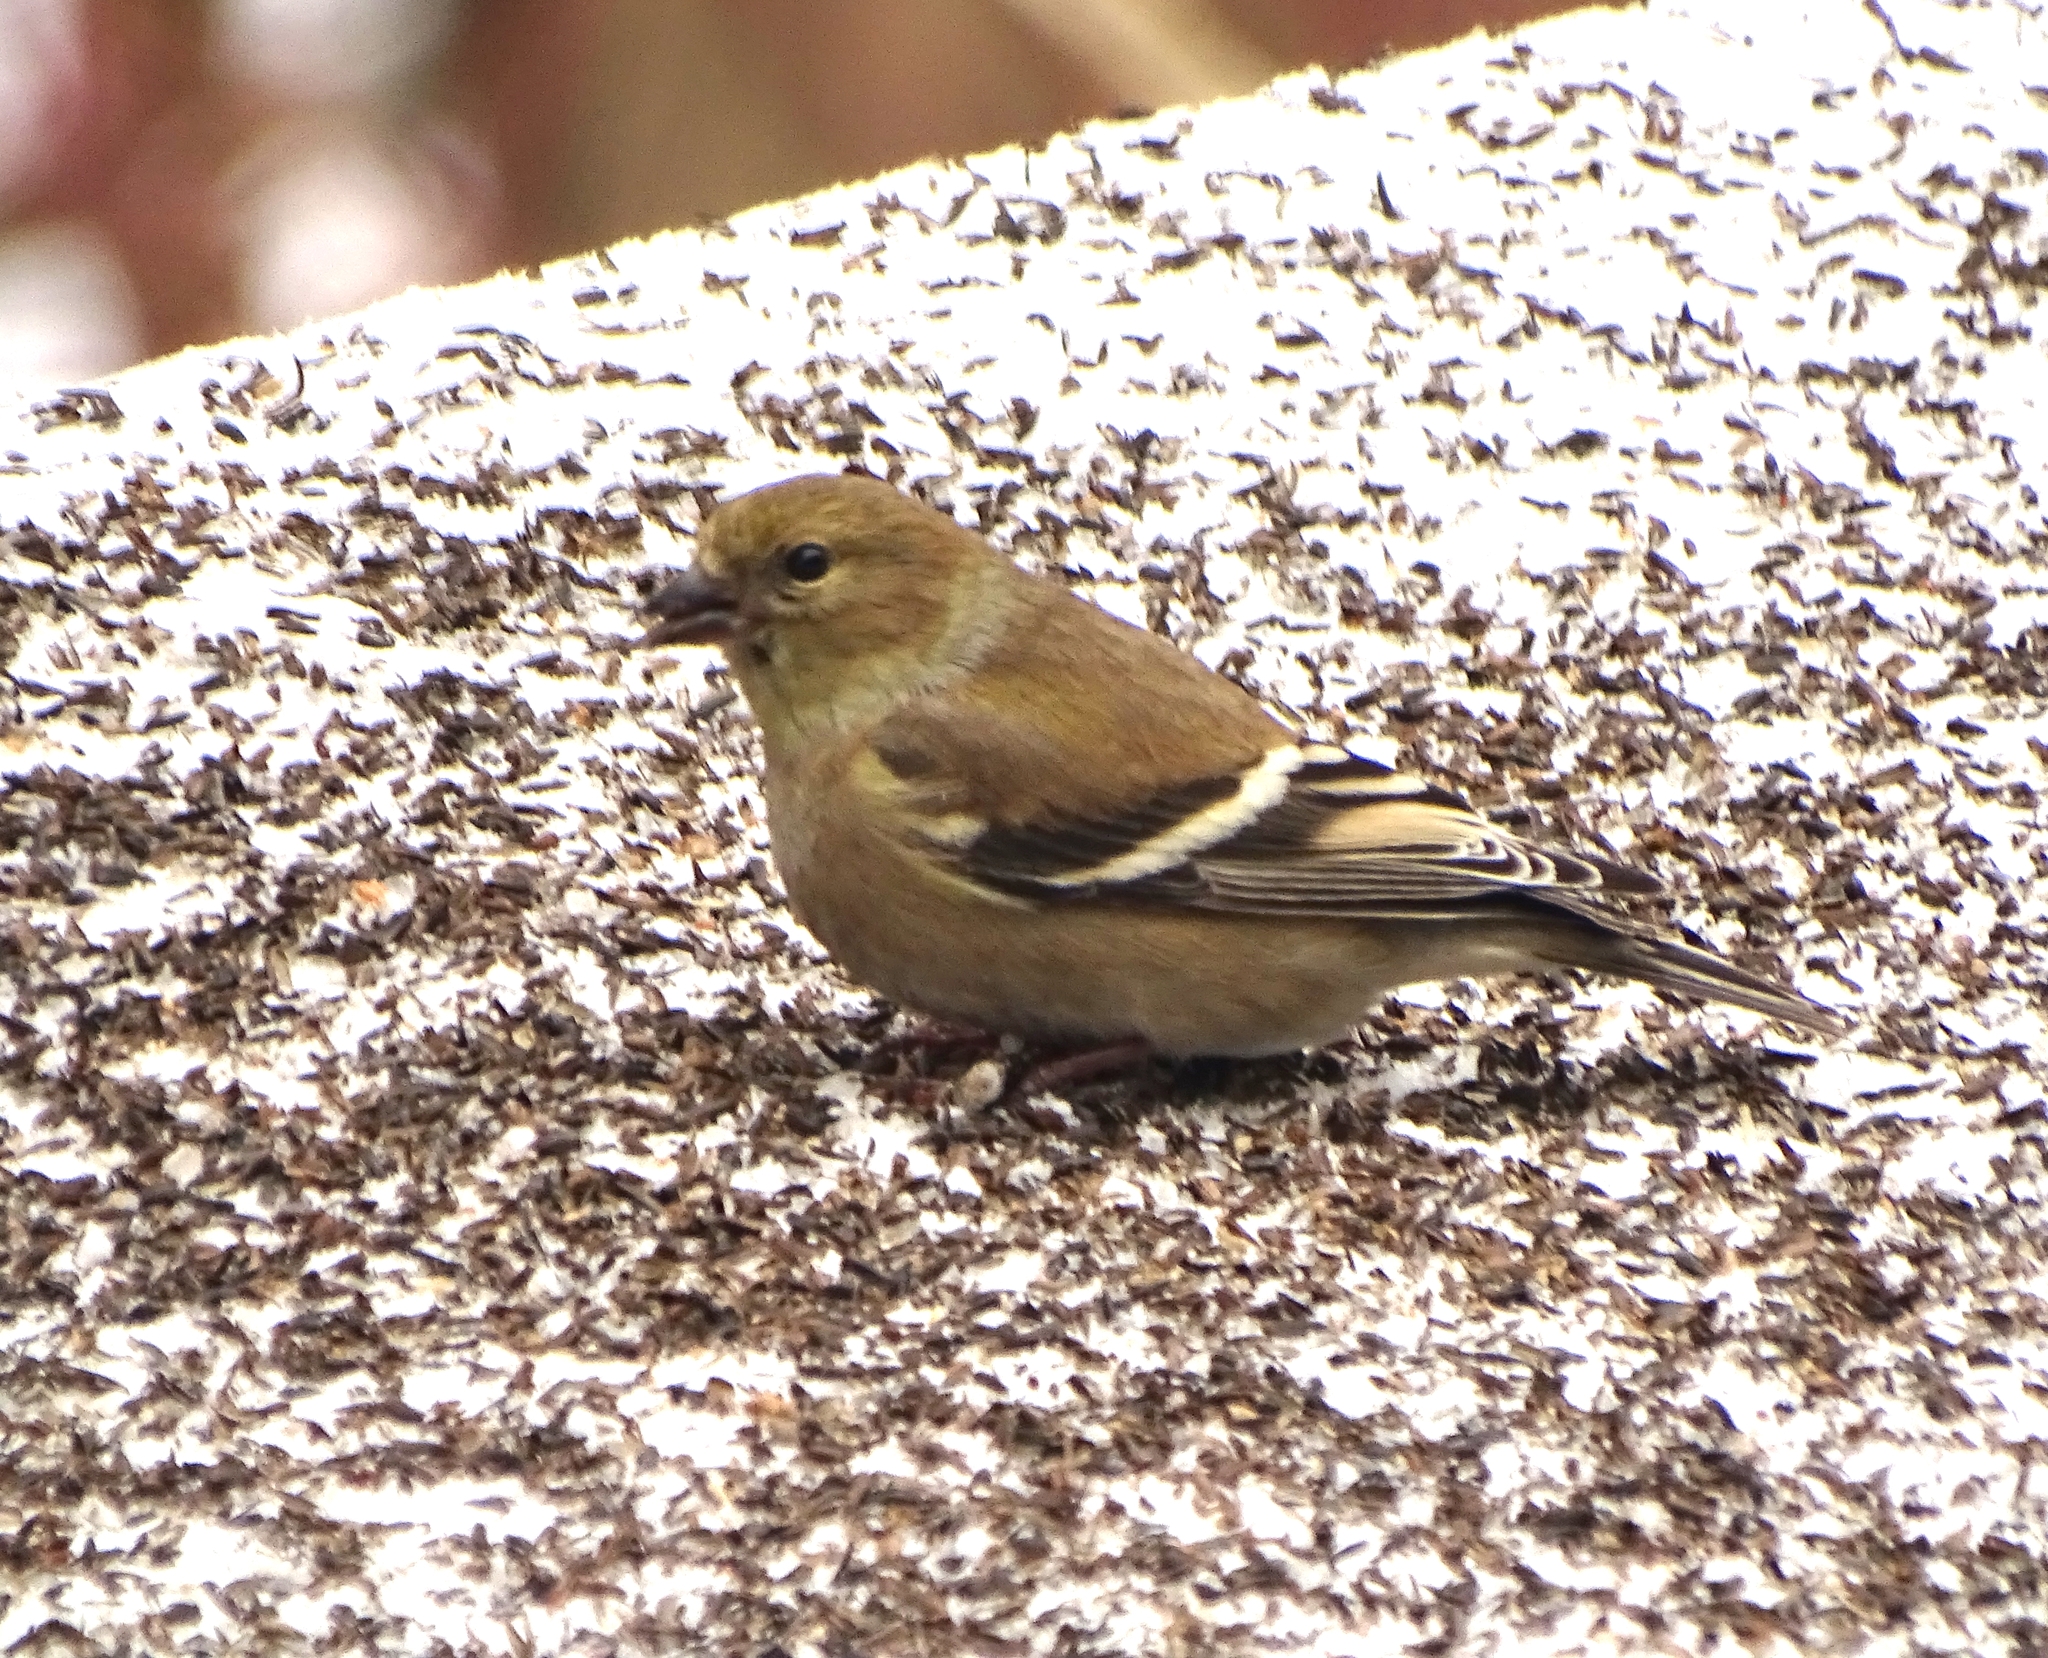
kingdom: Animalia
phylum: Chordata
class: Aves
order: Passeriformes
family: Fringillidae
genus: Spinus
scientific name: Spinus tristis
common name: American goldfinch
